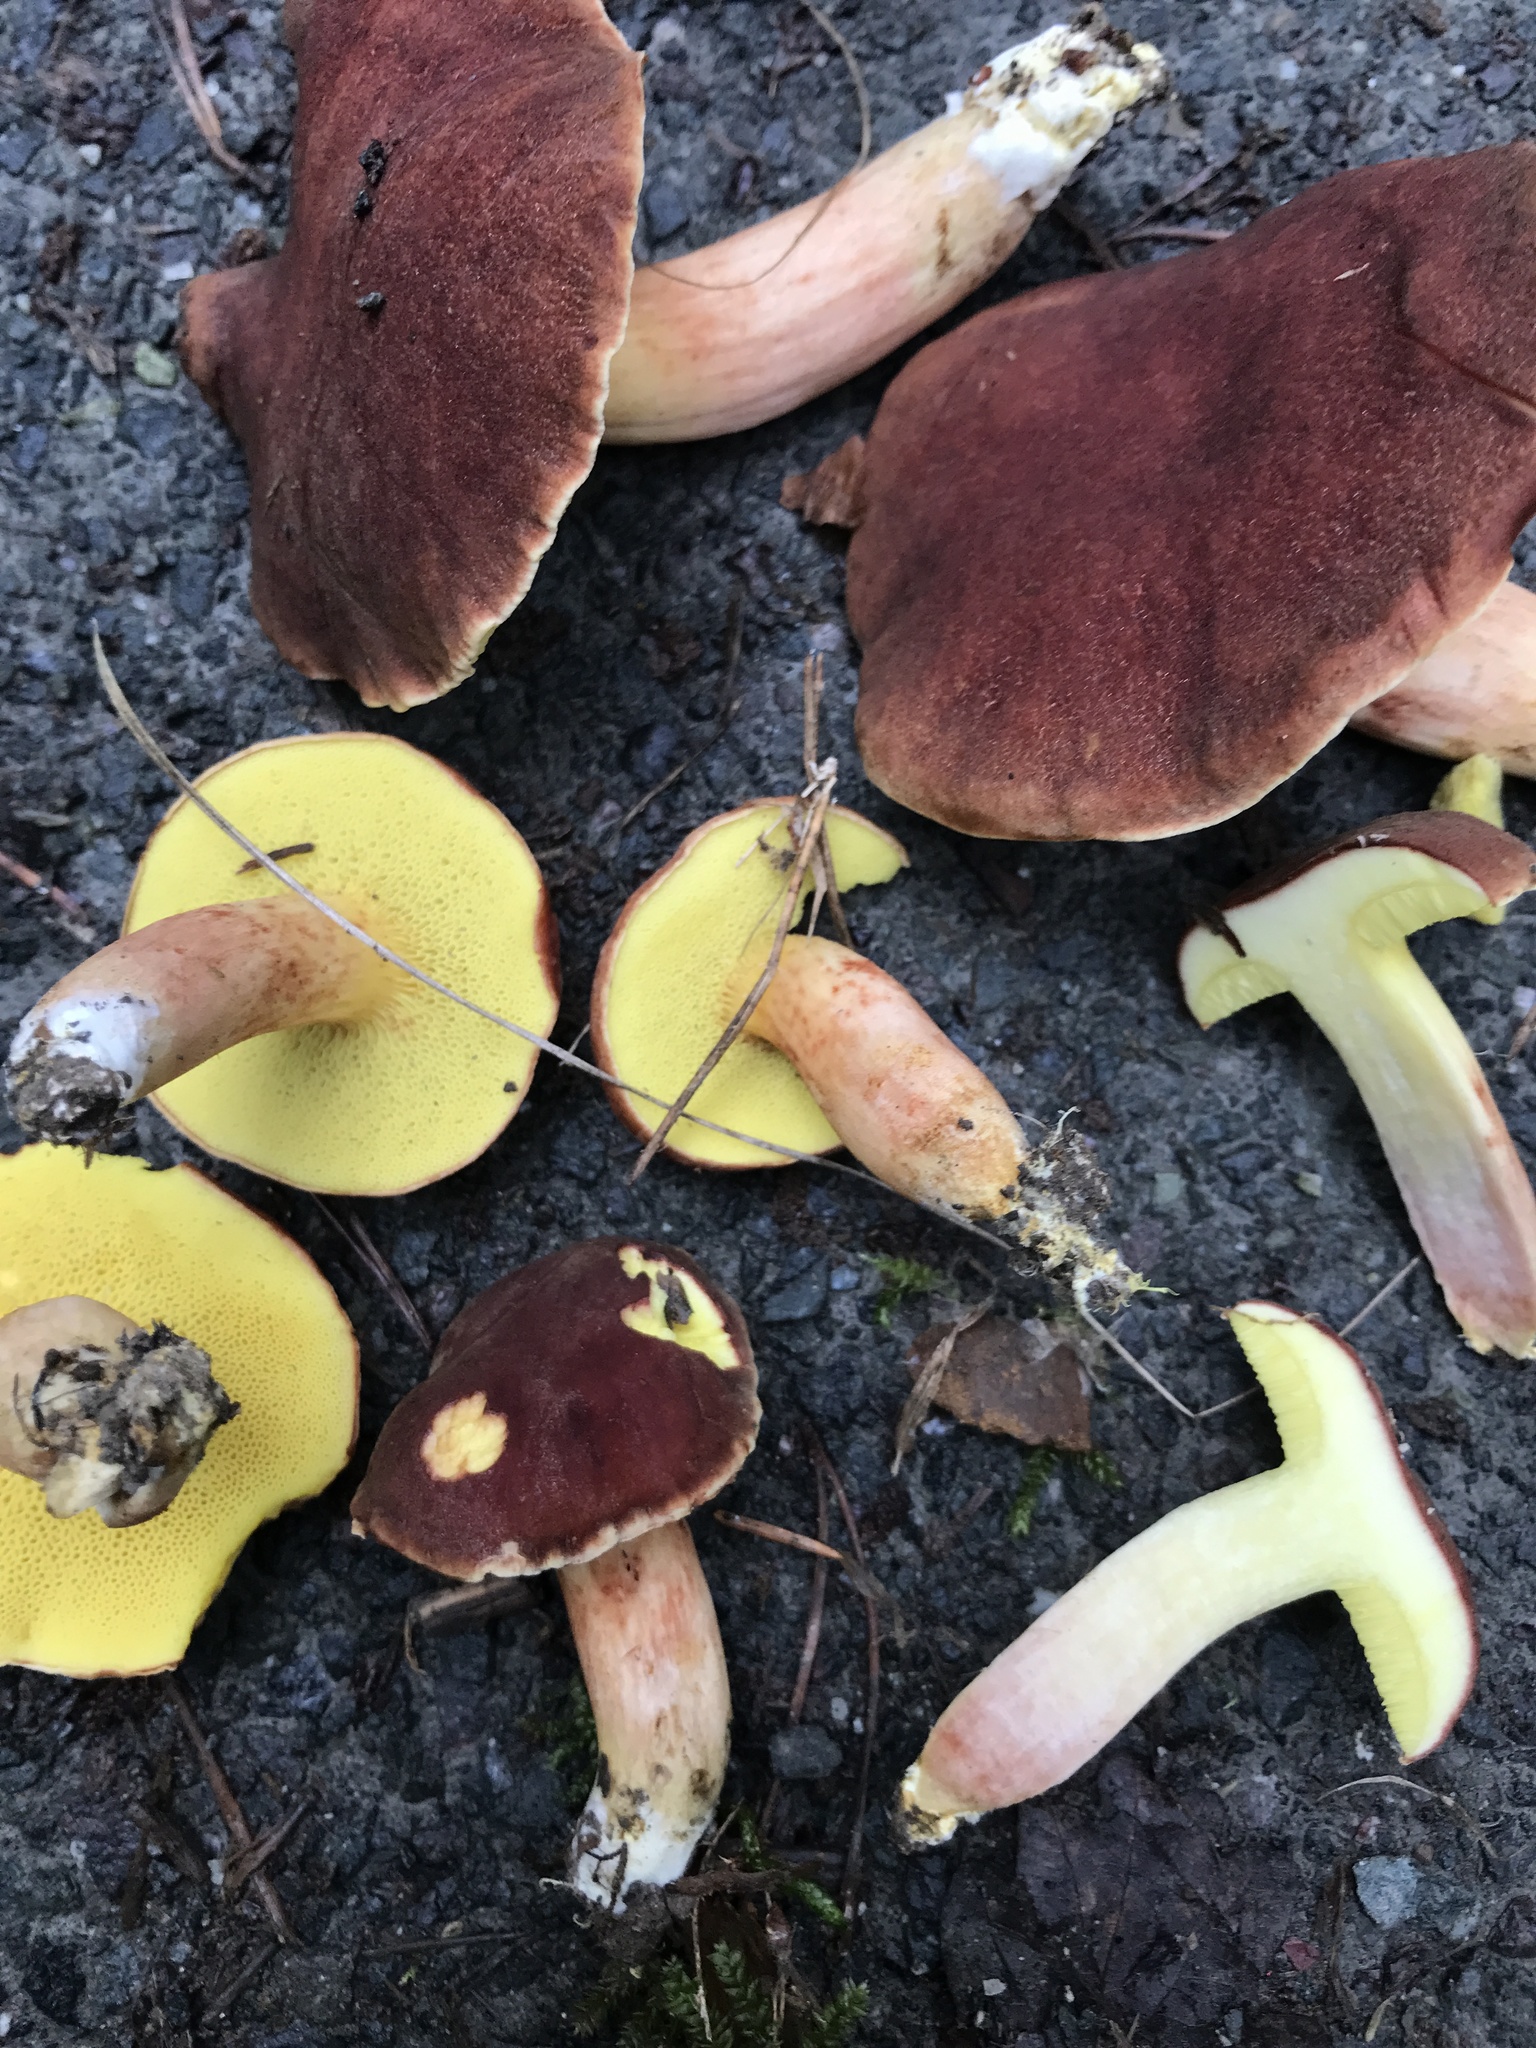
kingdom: Fungi
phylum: Basidiomycota
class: Agaricomycetes
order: Boletales
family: Boletaceae
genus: Xerocomus
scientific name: Xerocomus subtomentosus
